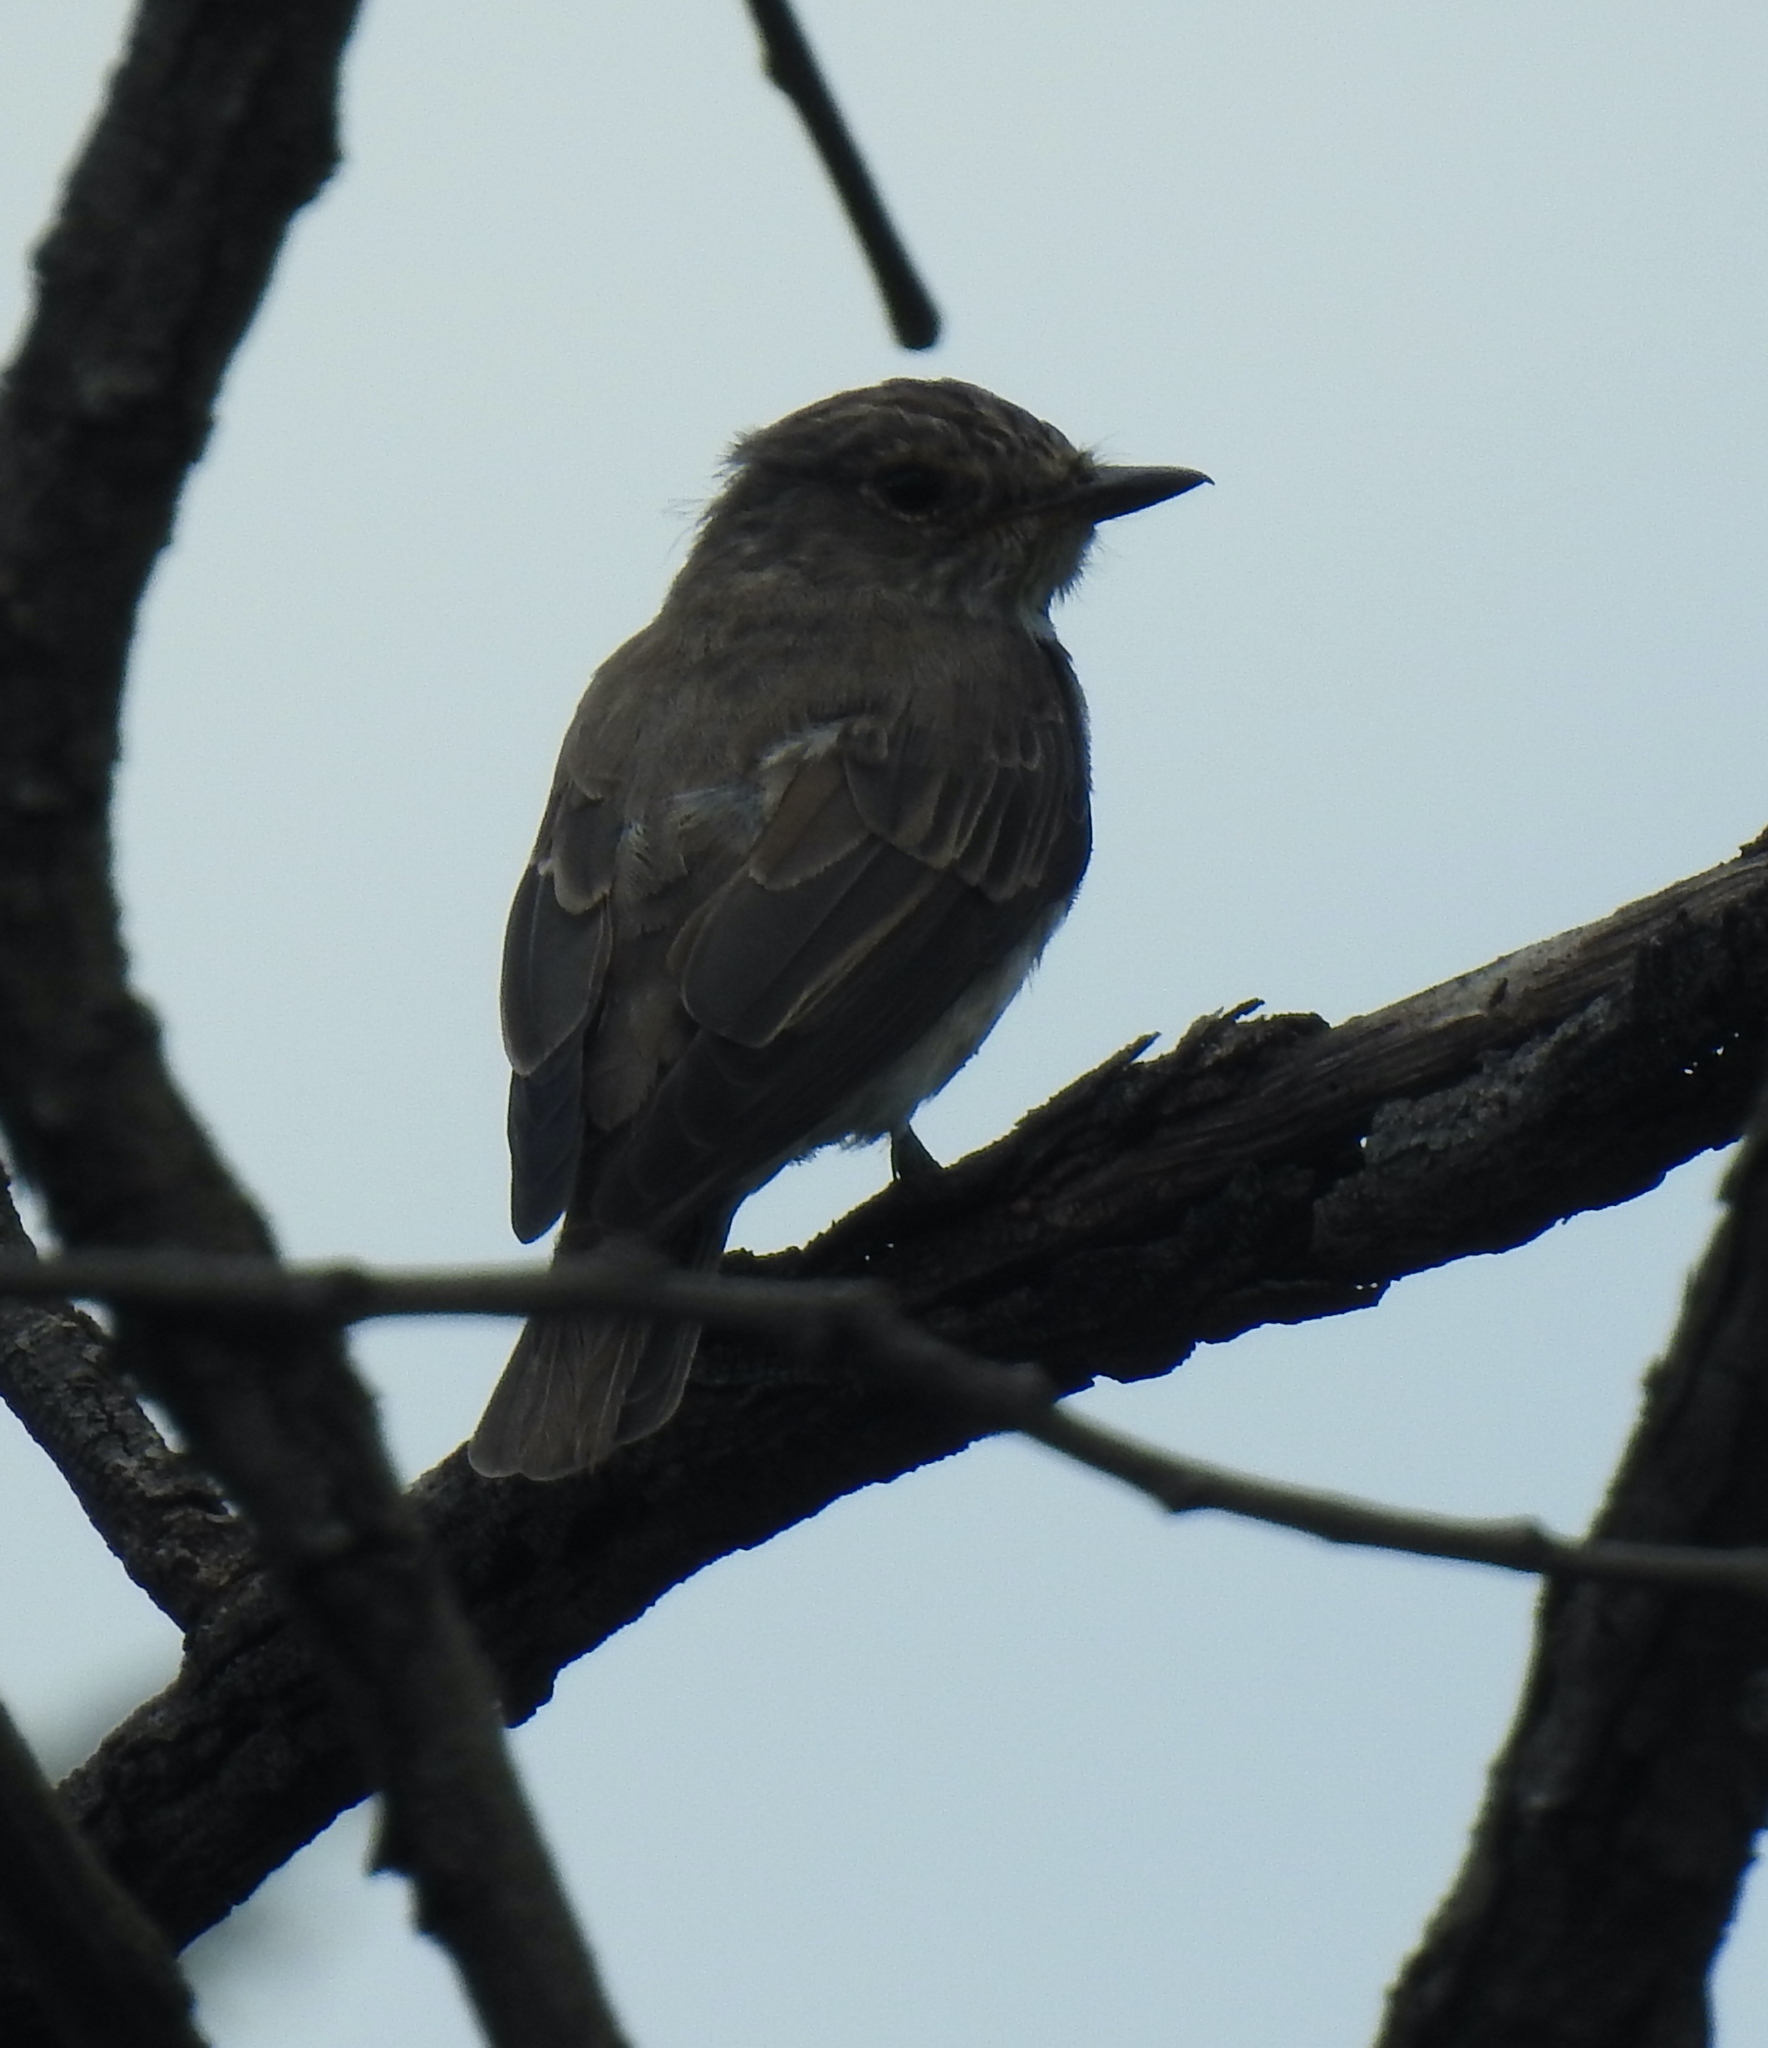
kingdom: Animalia
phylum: Chordata
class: Aves
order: Passeriformes
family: Muscicapidae
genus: Muscicapa
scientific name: Muscicapa striata
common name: Spotted flycatcher
